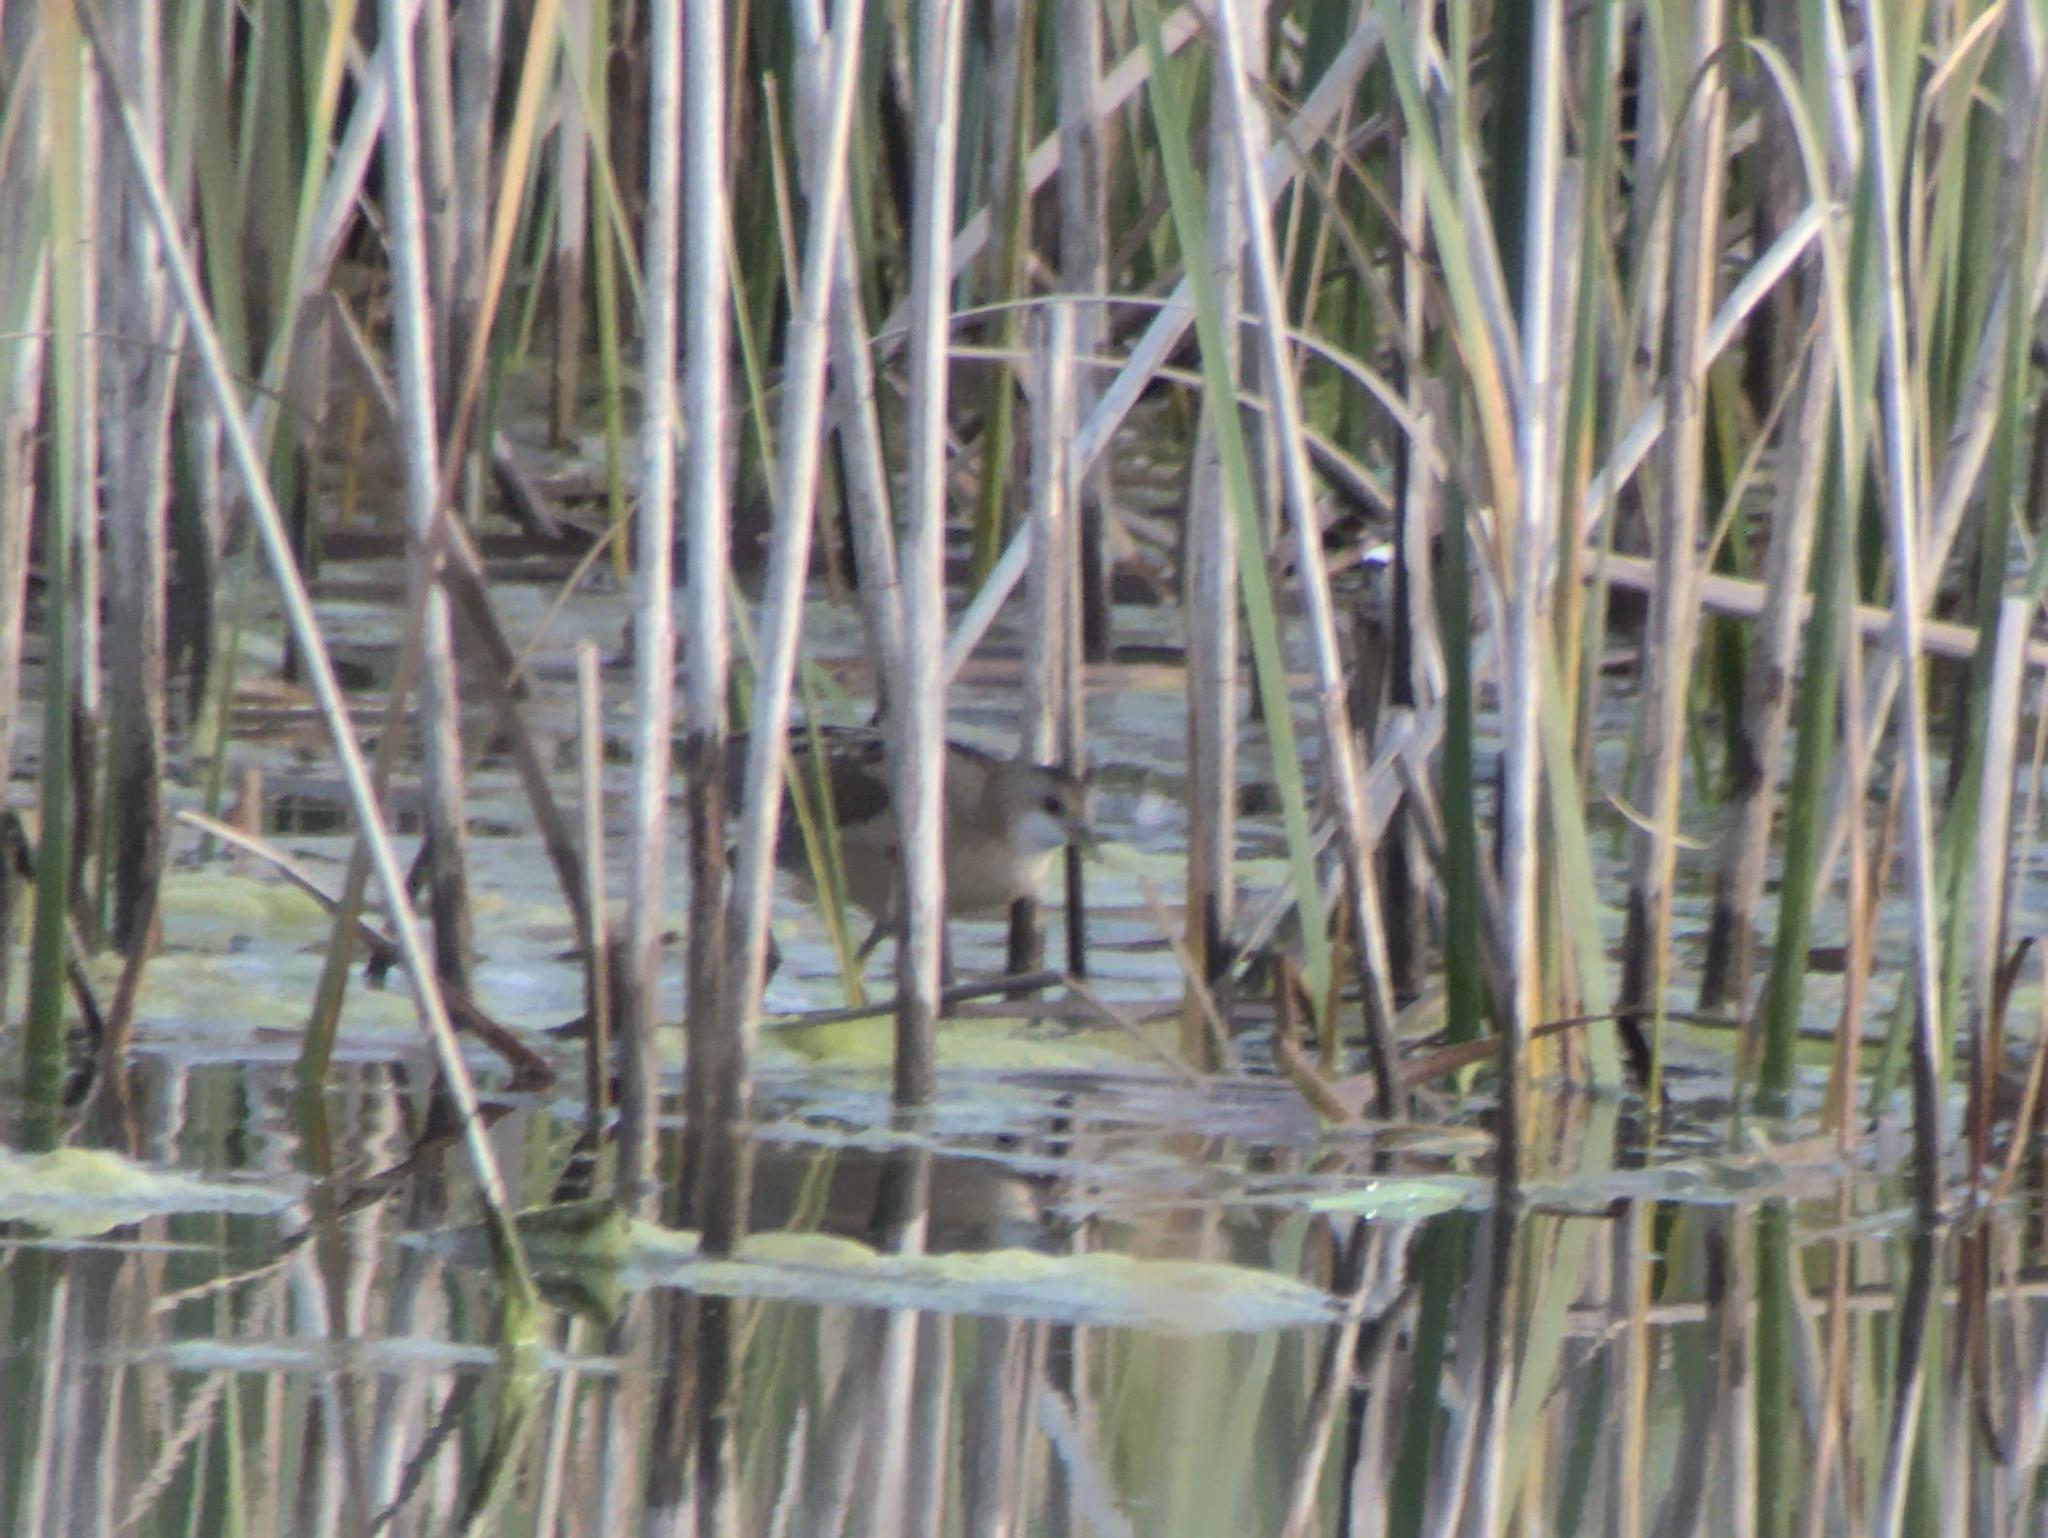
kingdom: Animalia
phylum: Chordata
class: Aves
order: Gruiformes
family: Rallidae
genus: Porzana
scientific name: Porzana parva
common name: Little crake
